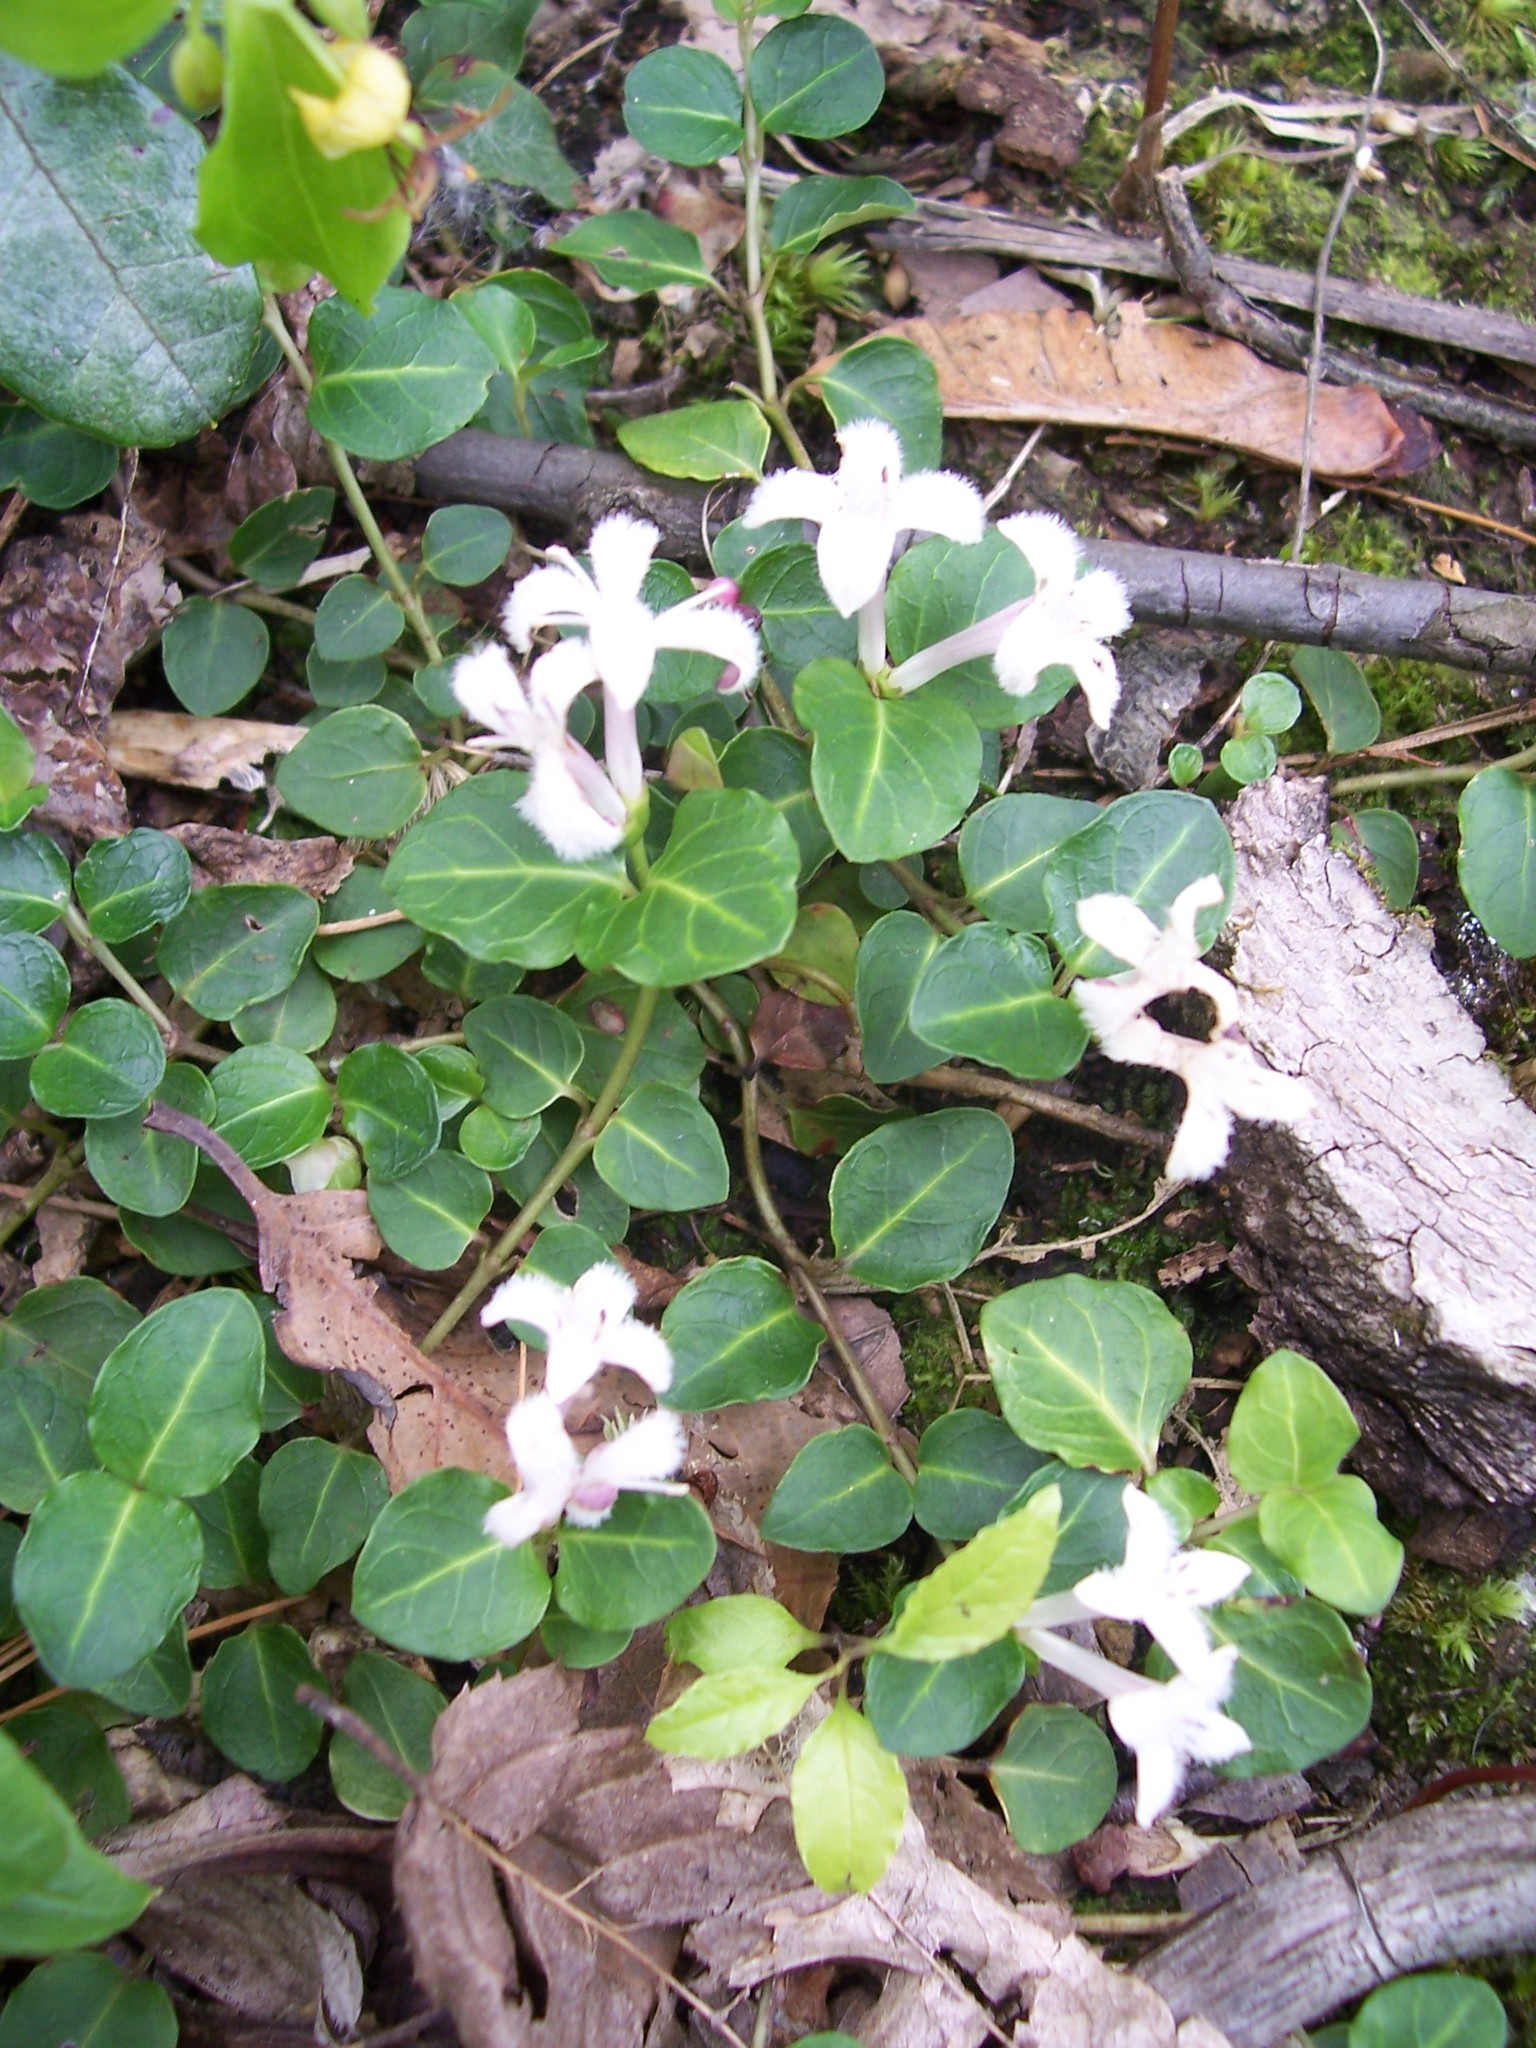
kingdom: Plantae
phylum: Tracheophyta
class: Magnoliopsida
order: Gentianales
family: Rubiaceae
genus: Mitchella
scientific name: Mitchella repens
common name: Partridge-berry
